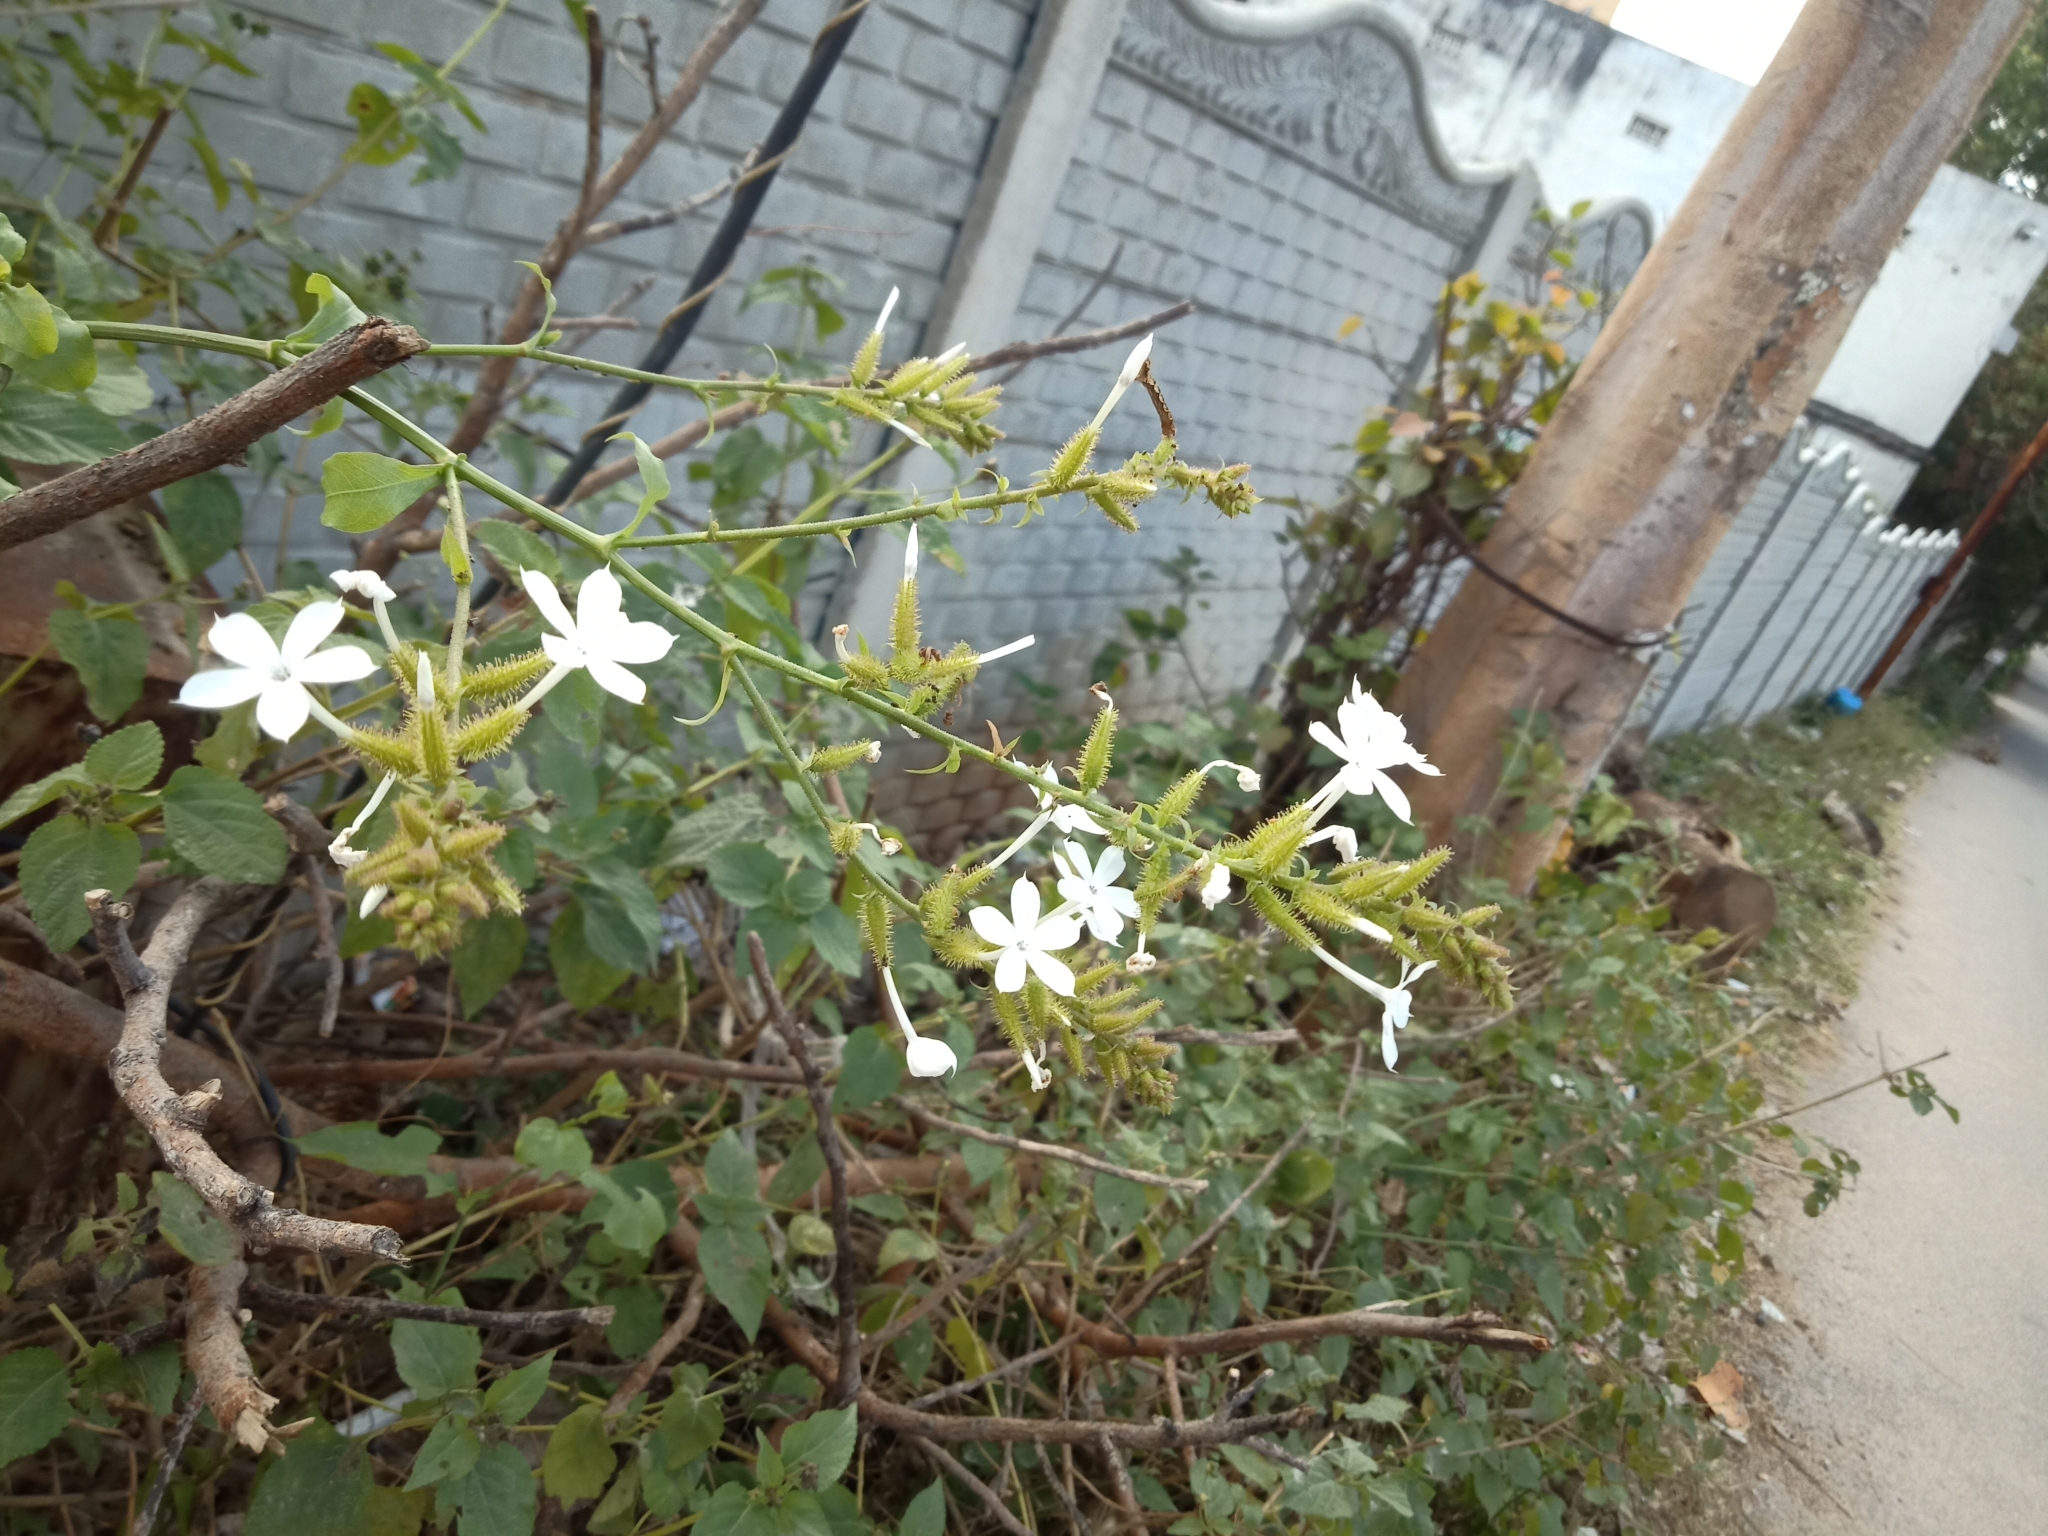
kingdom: Plantae
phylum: Tracheophyta
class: Magnoliopsida
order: Caryophyllales
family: Plumbaginaceae
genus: Plumbago
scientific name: Plumbago zeylanica
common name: Doctorbush
